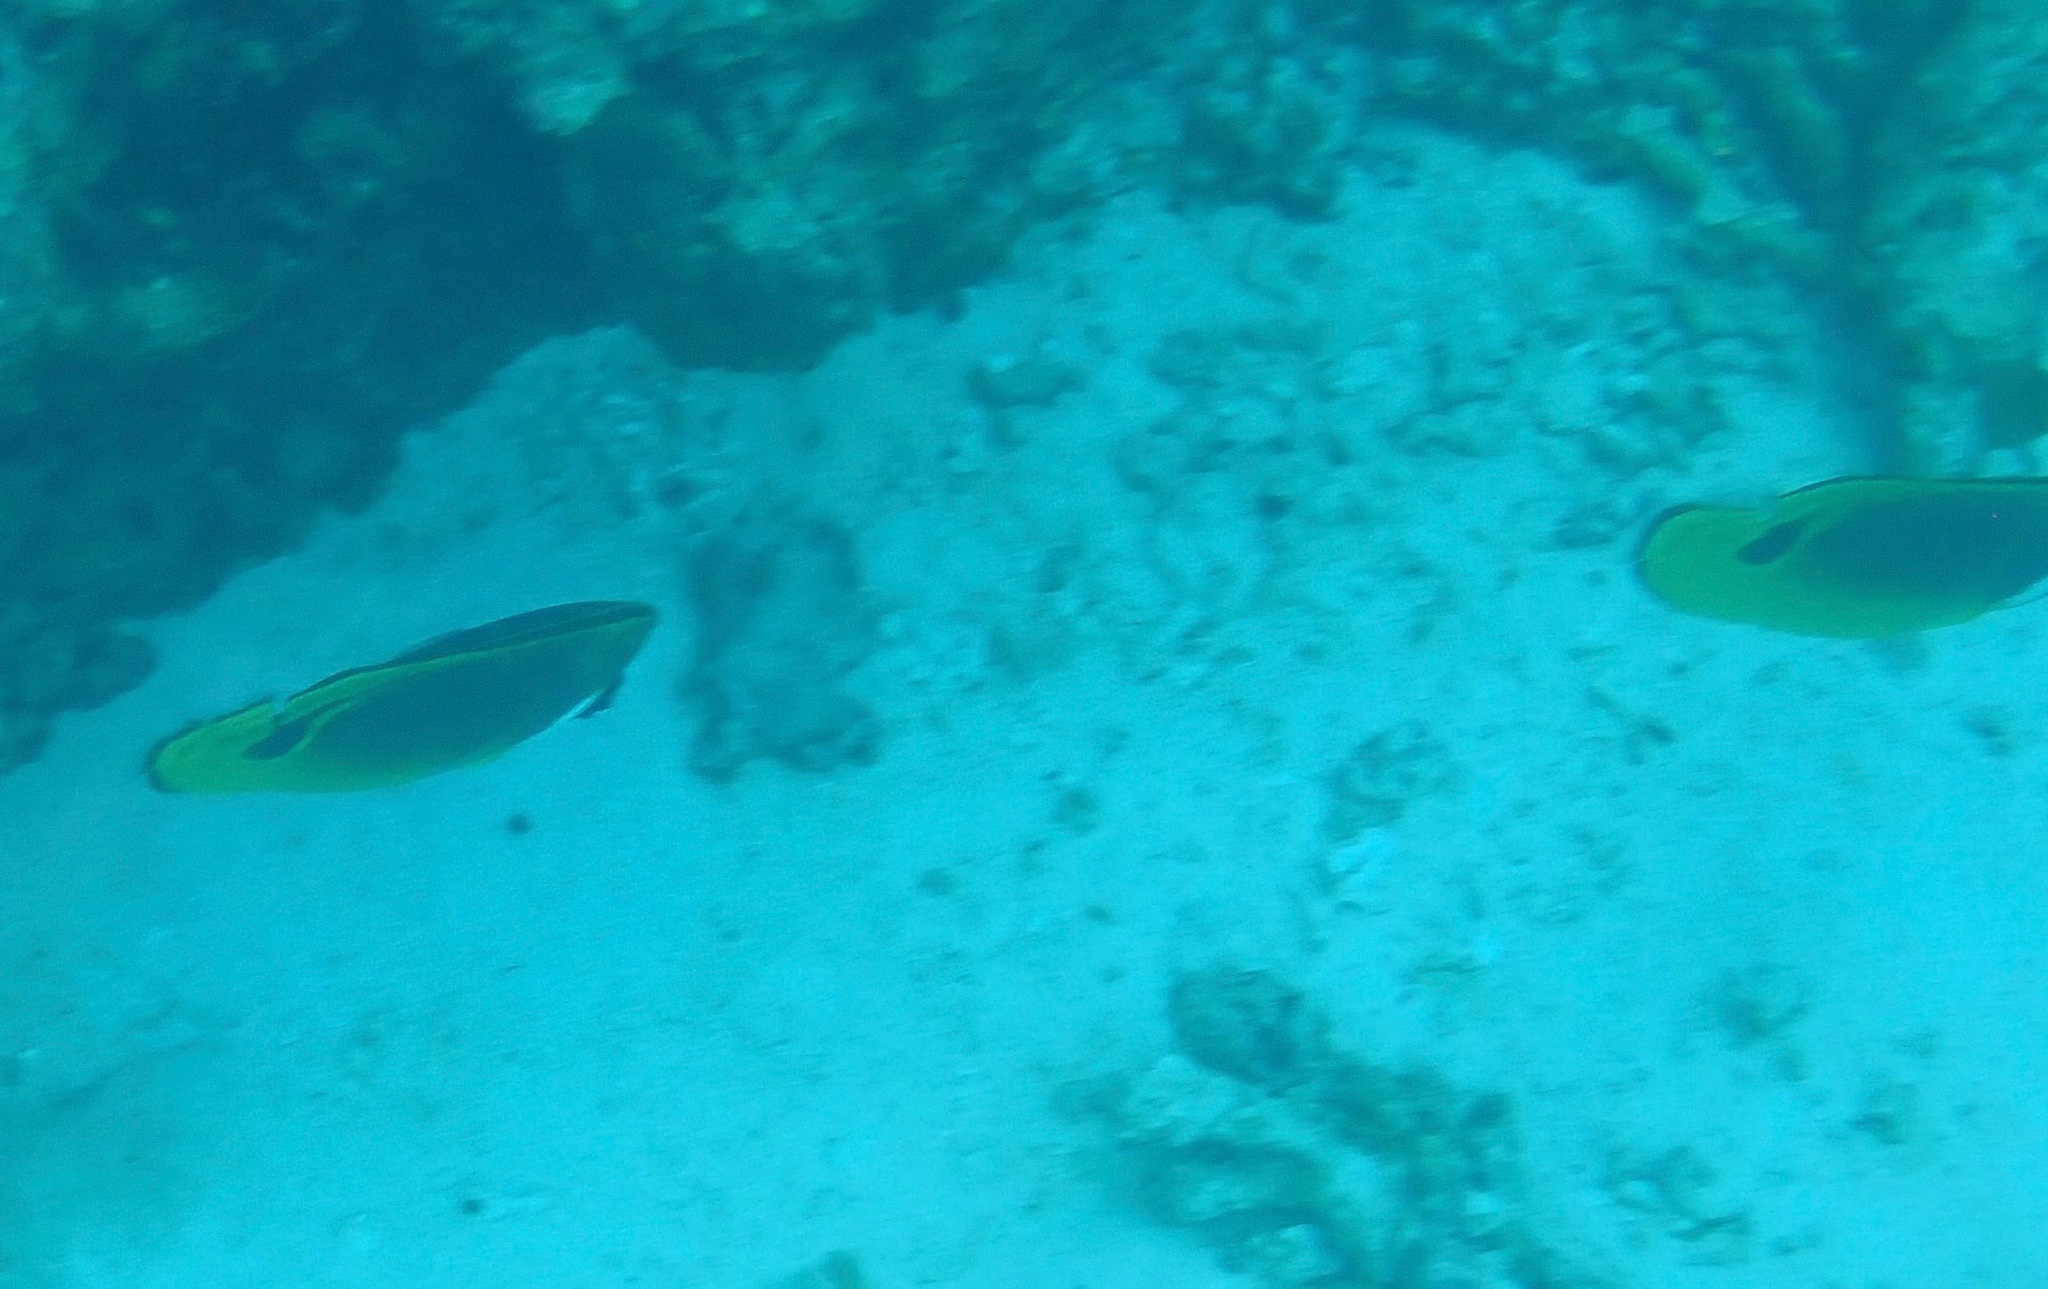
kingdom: Animalia
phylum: Chordata
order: Perciformes
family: Chaetodontidae
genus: Chaetodon
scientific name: Chaetodon lunula
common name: Raccoon butterflyfish
